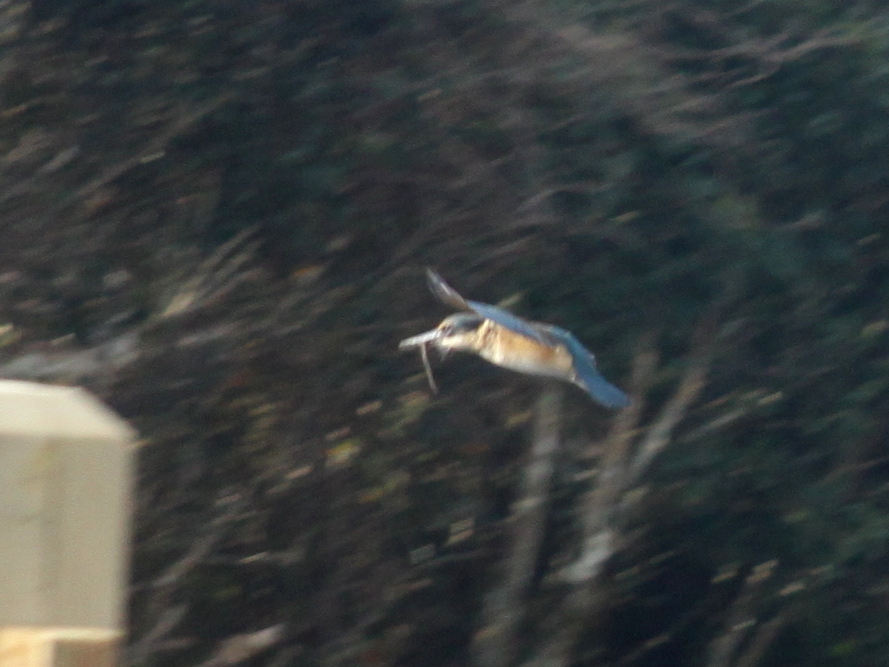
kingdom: Animalia
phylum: Chordata
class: Aves
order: Coraciiformes
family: Alcedinidae
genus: Todiramphus
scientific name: Todiramphus sanctus
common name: Sacred kingfisher
